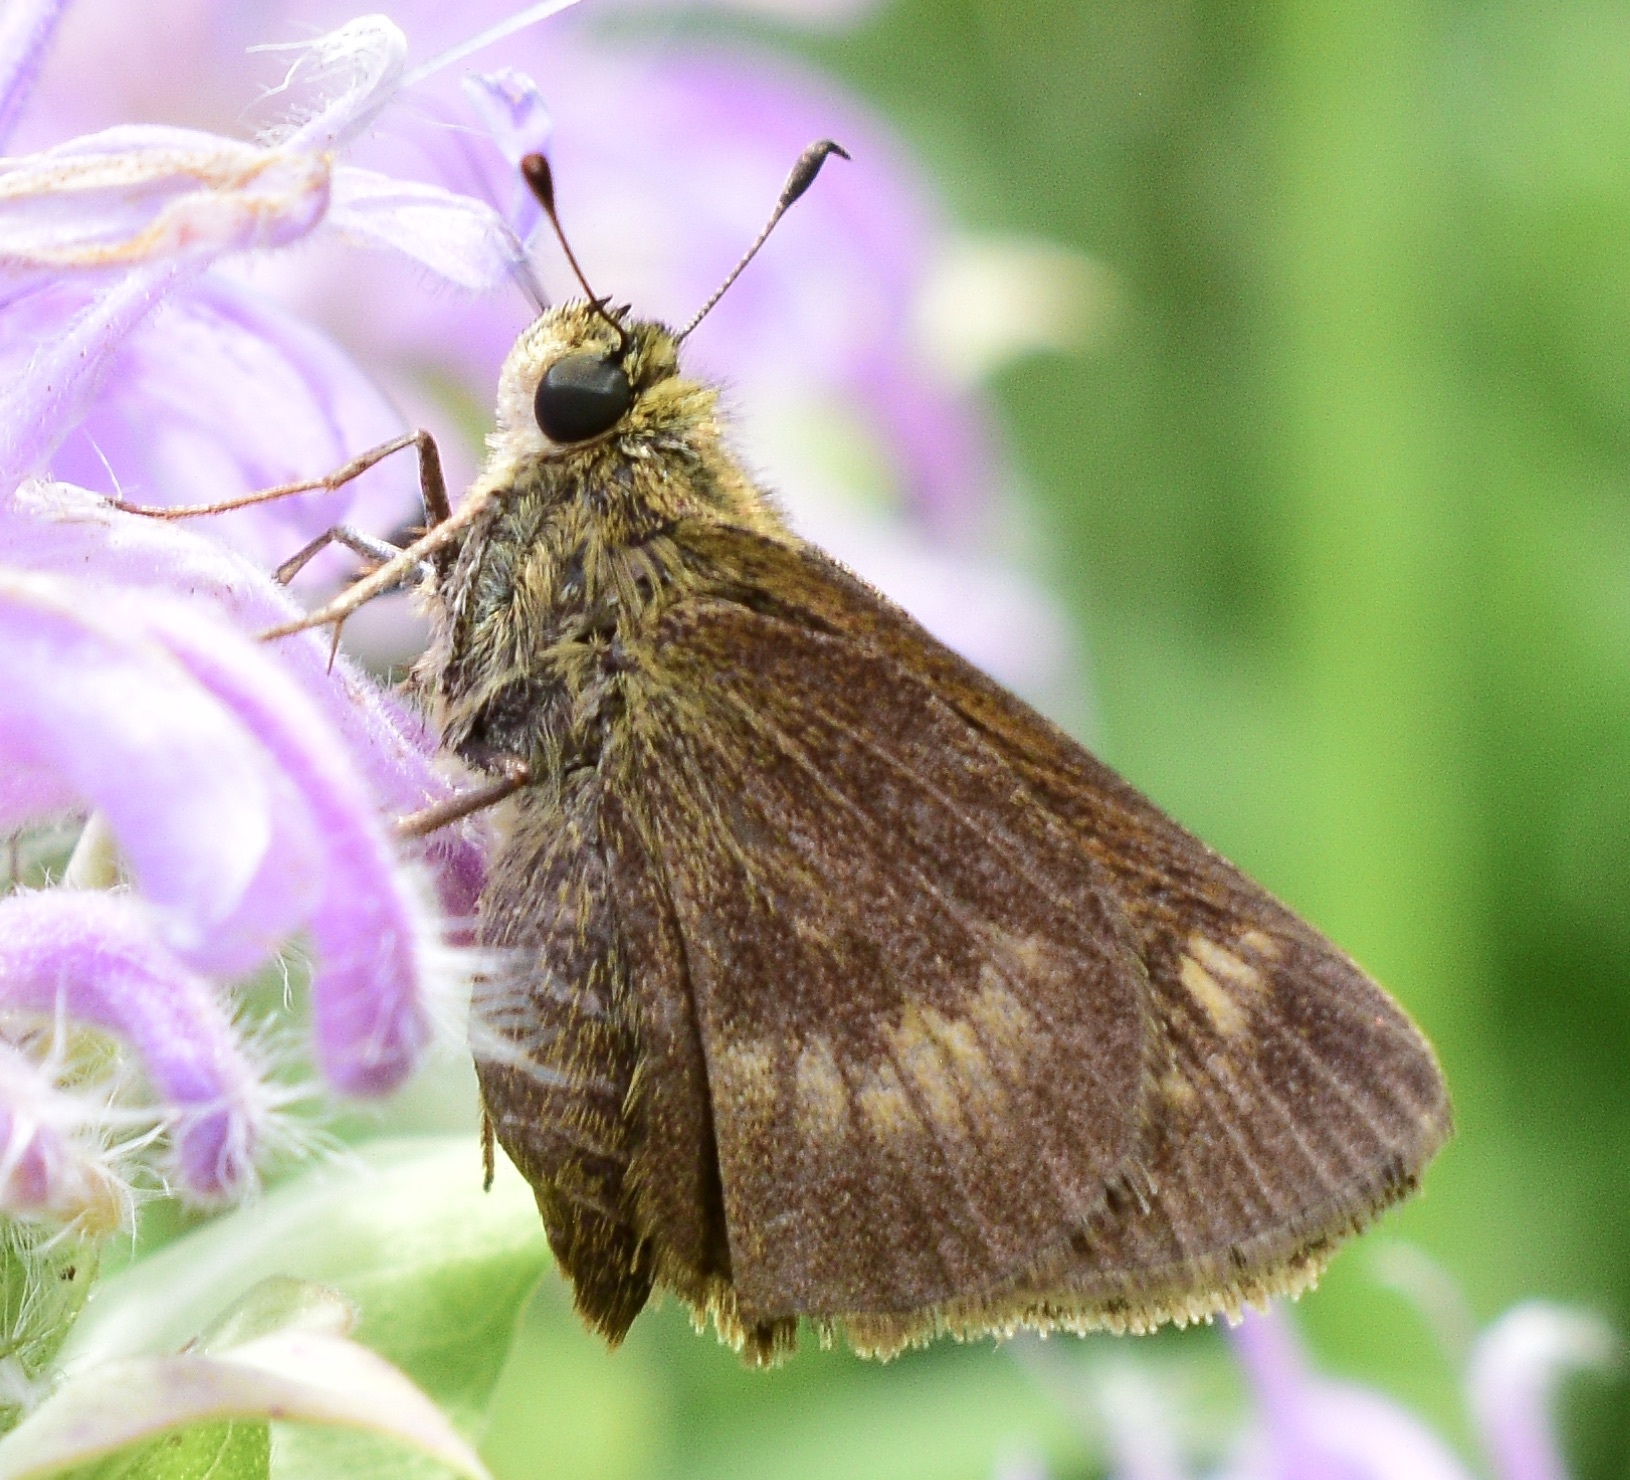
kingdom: Animalia
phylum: Arthropoda
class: Insecta
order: Lepidoptera
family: Hesperiidae
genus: Polites
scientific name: Polites egeremet
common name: Northern broken-dash
